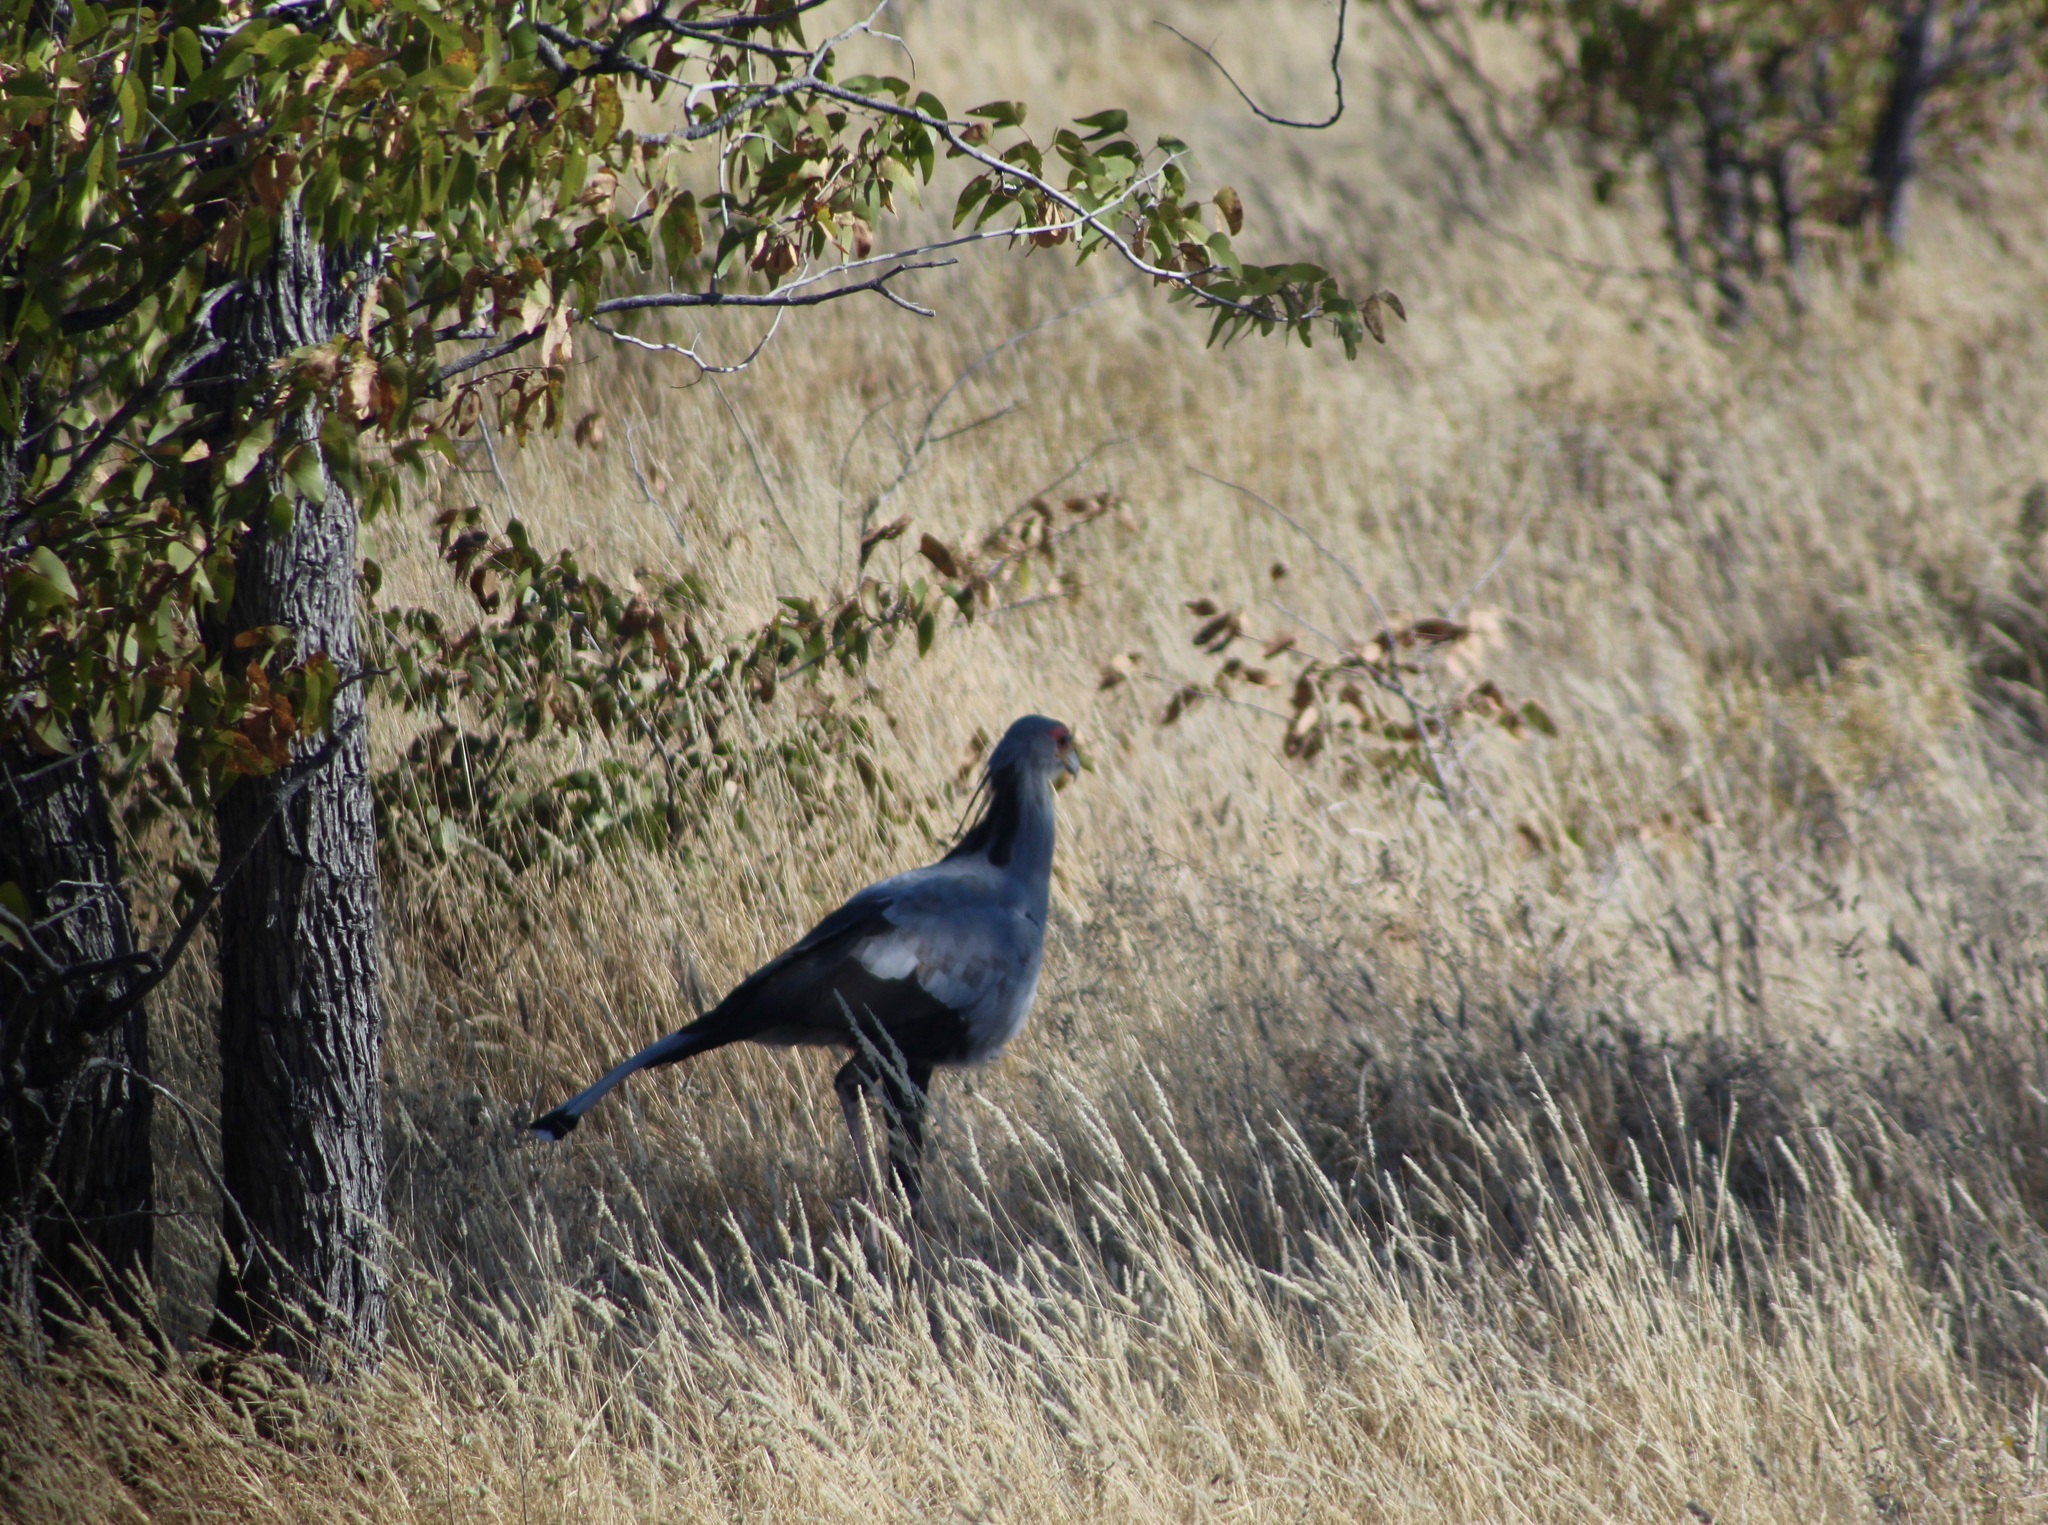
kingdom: Animalia
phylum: Chordata
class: Aves
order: Accipitriformes
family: Sagittariidae
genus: Sagittarius
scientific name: Sagittarius serpentarius
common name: Secretarybird
